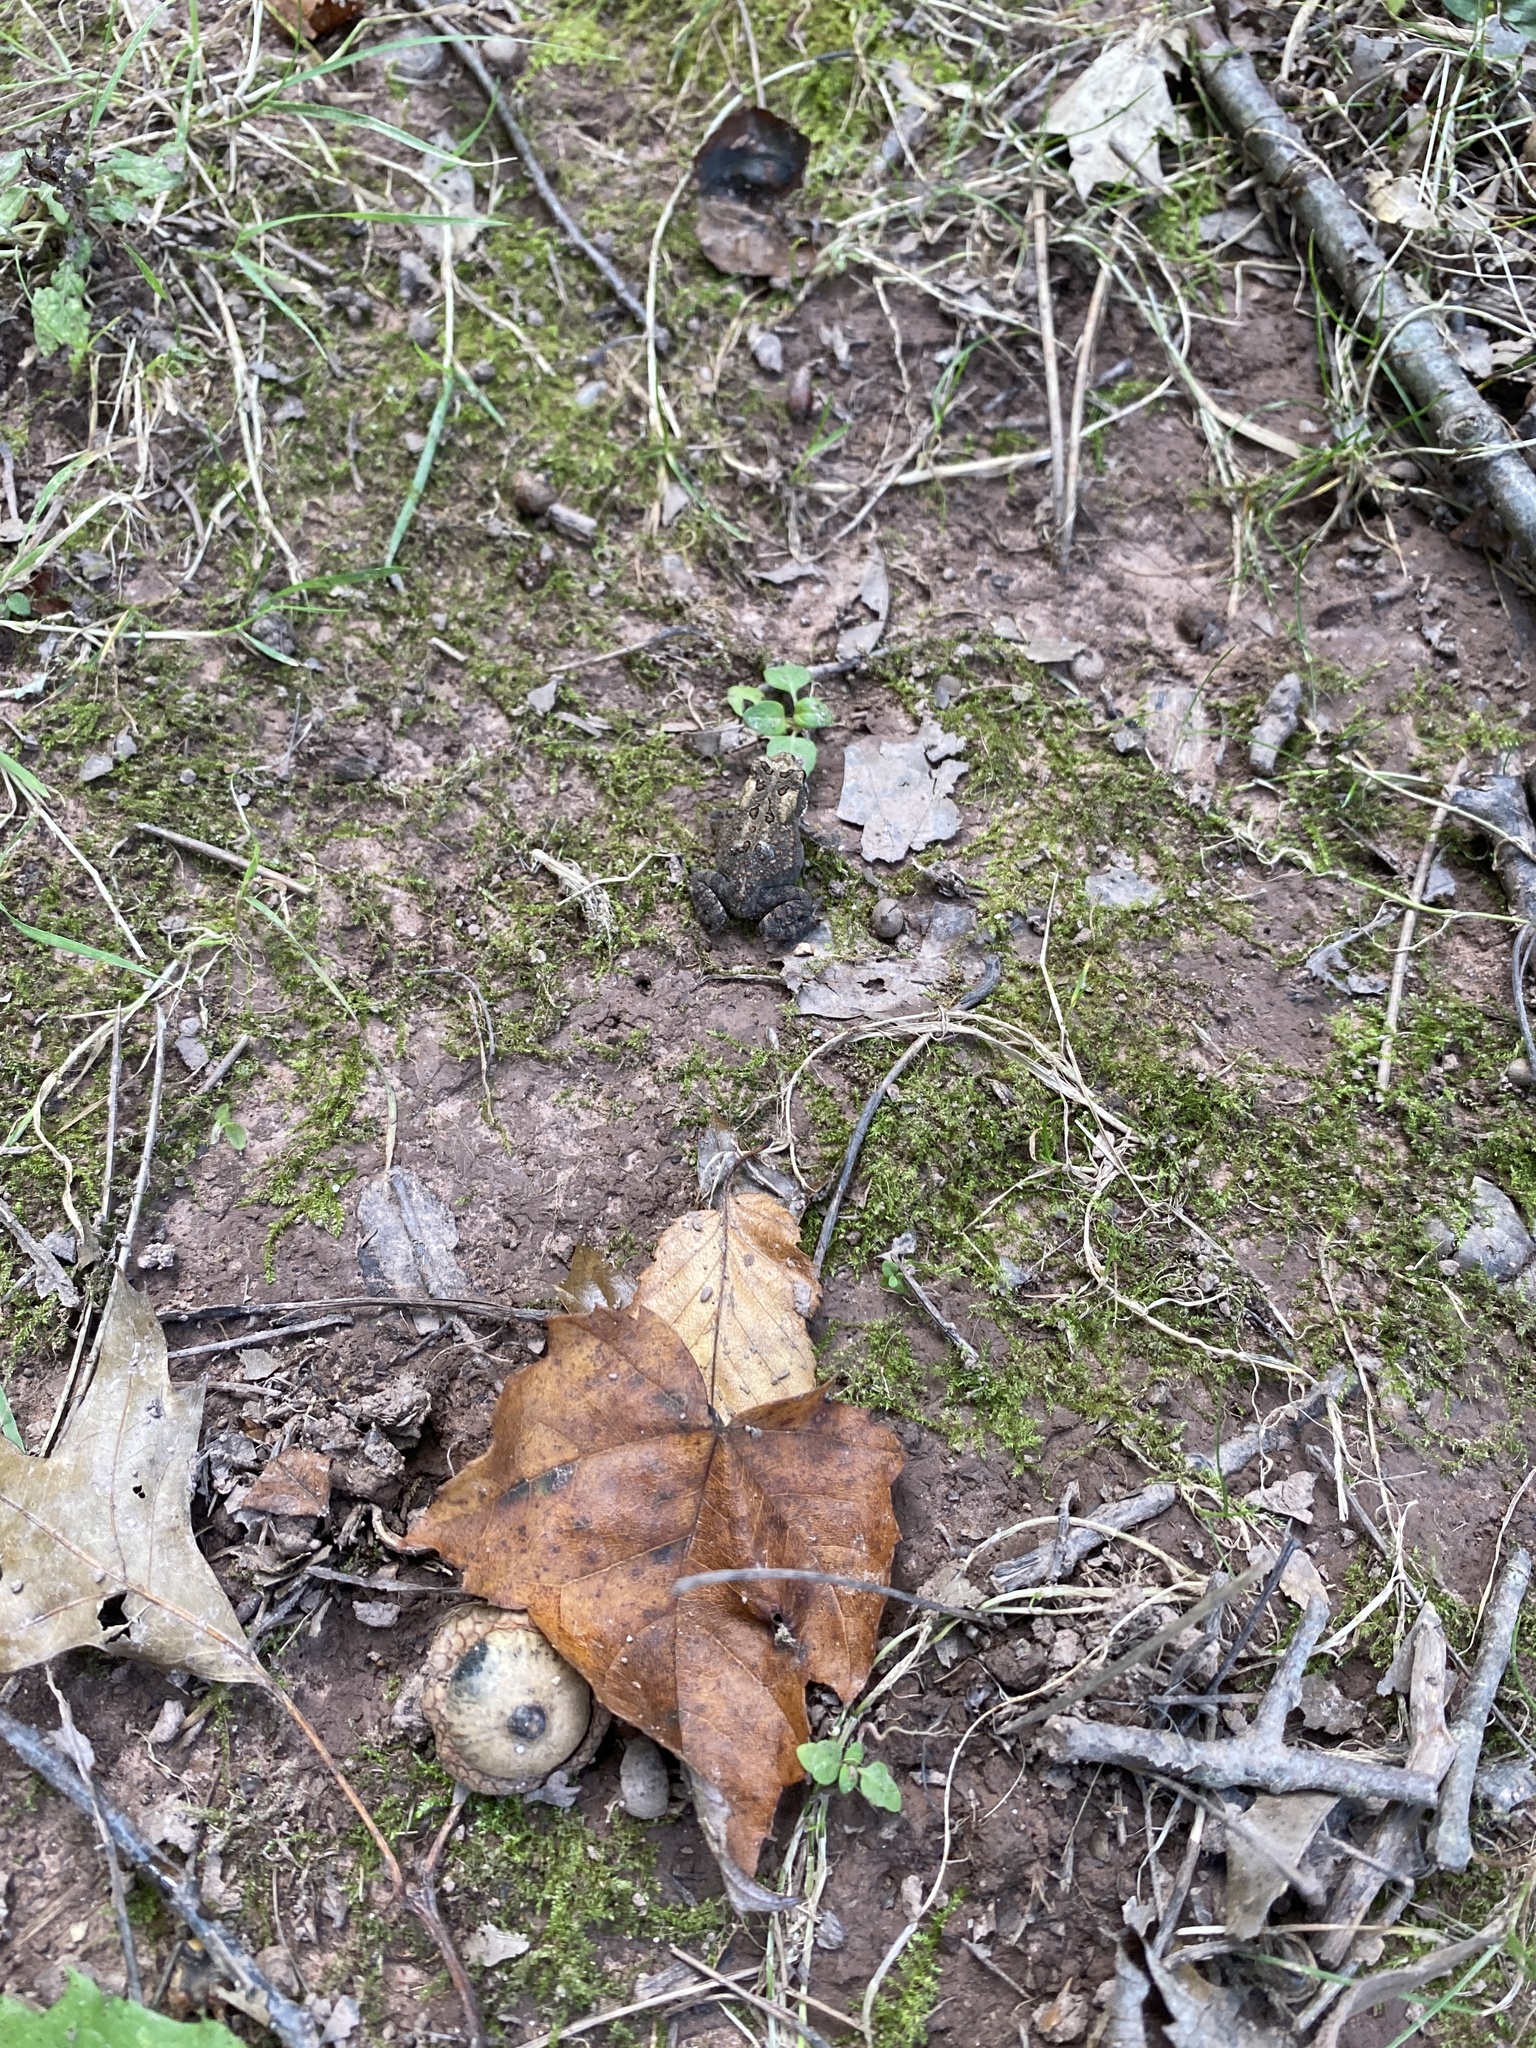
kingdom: Animalia
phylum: Chordata
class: Amphibia
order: Anura
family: Bufonidae
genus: Anaxyrus
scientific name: Anaxyrus americanus
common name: American toad
